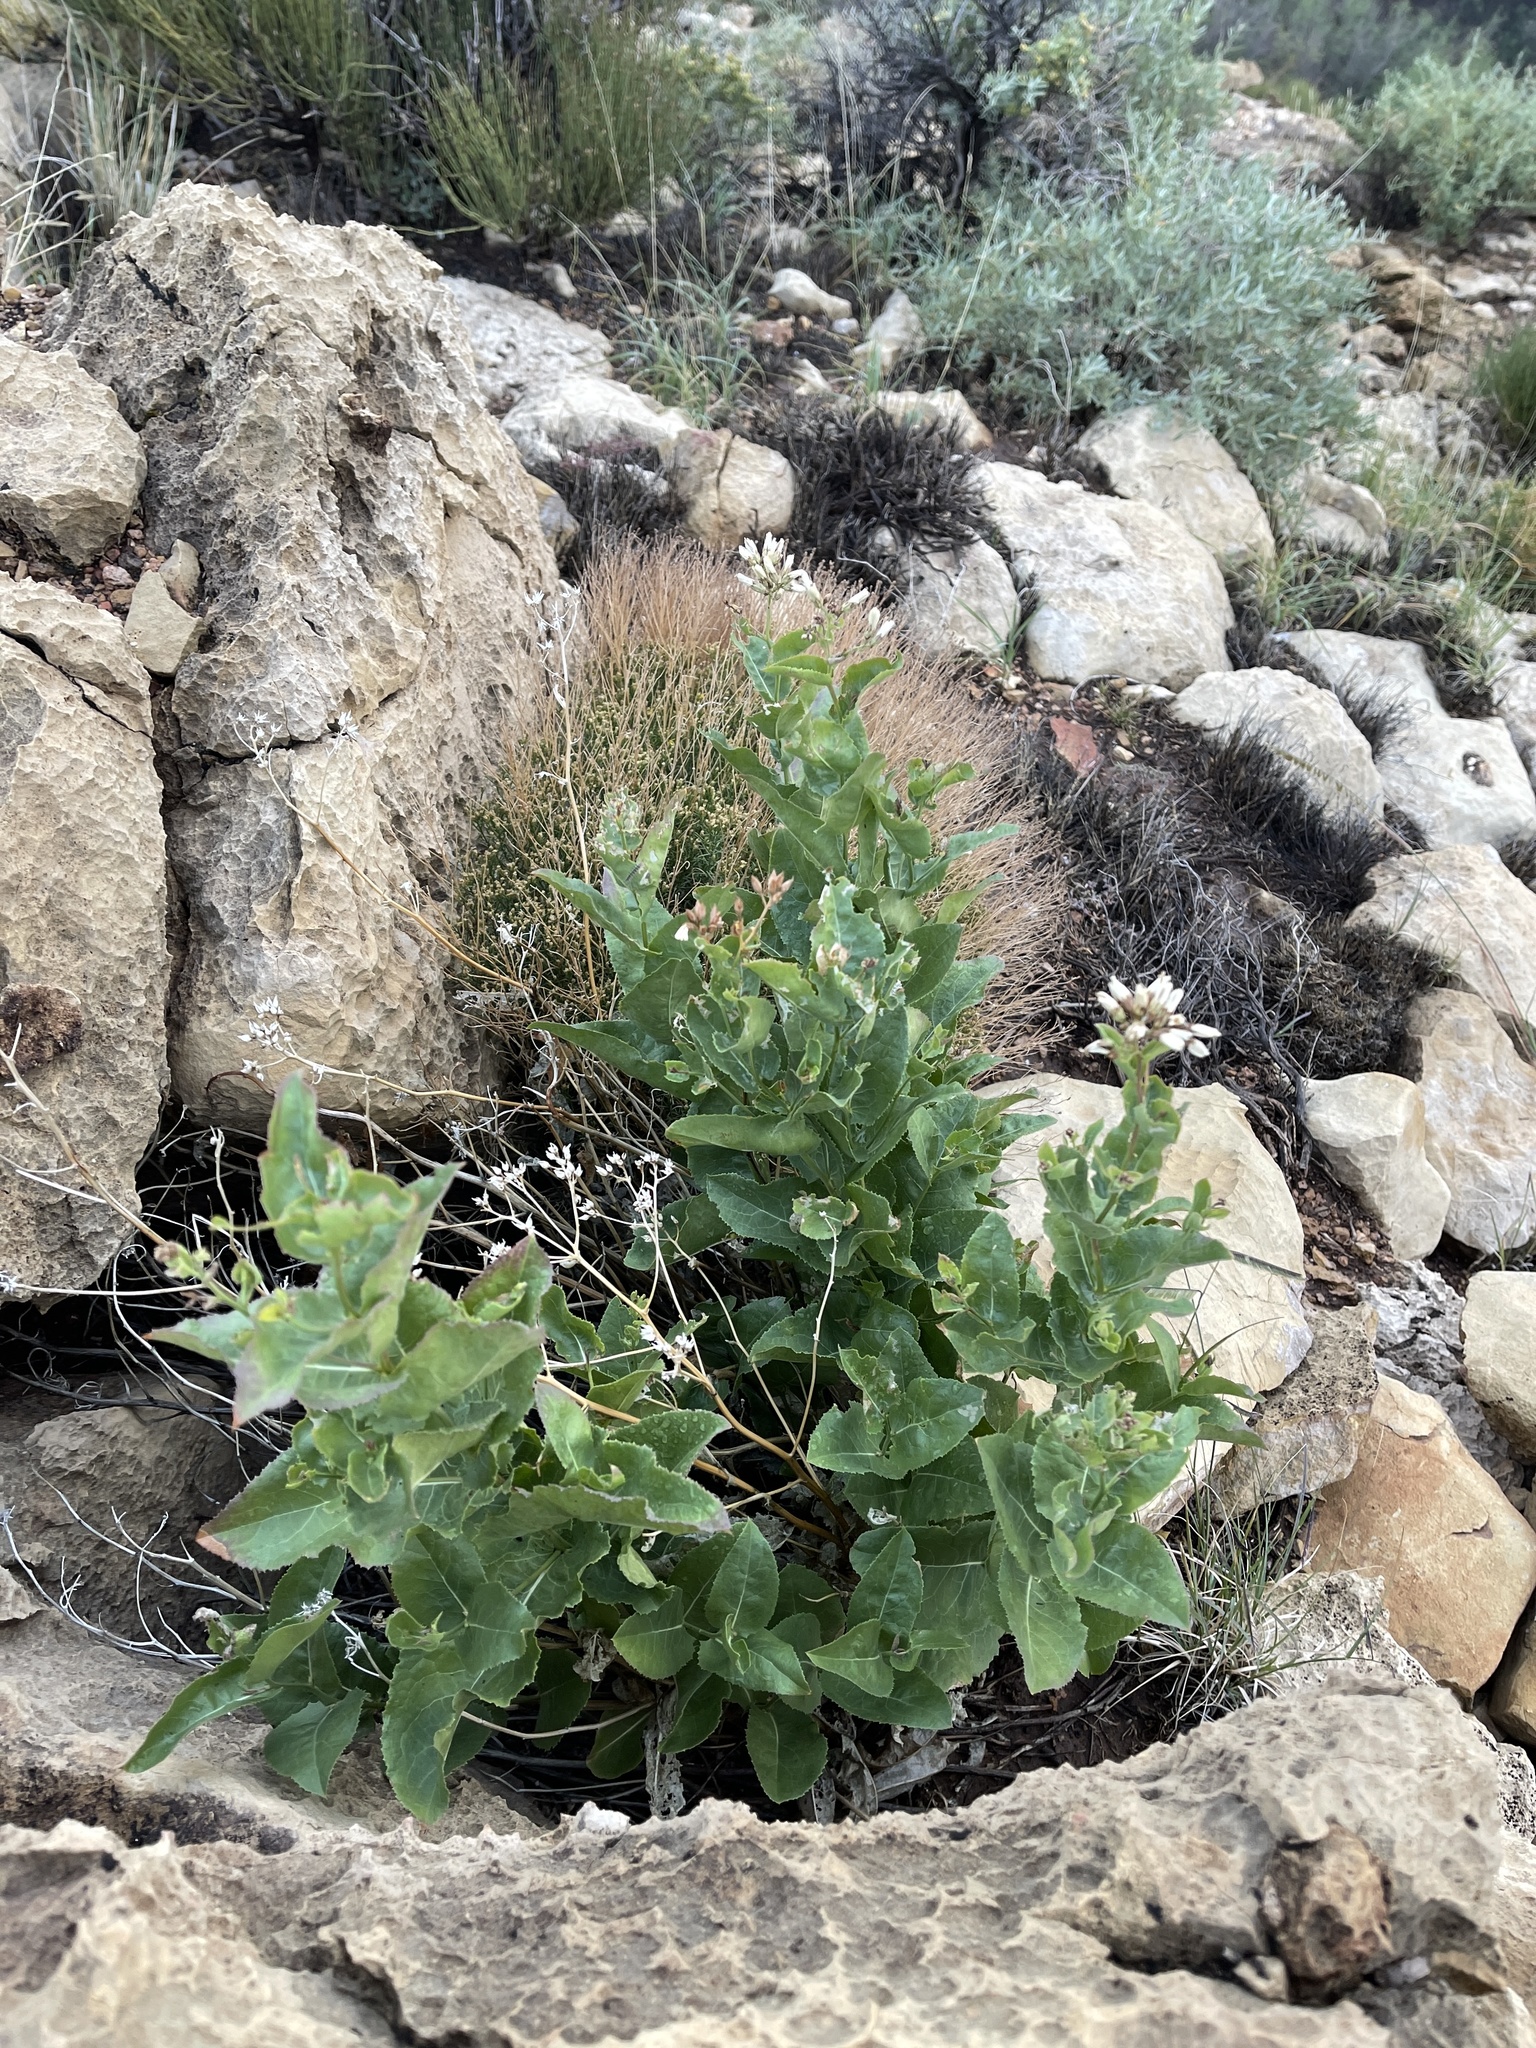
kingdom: Plantae
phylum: Tracheophyta
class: Magnoliopsida
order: Solanales
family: Solanaceae
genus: Nicotiana
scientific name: Nicotiana obtusifolia
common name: Desert tobacco
